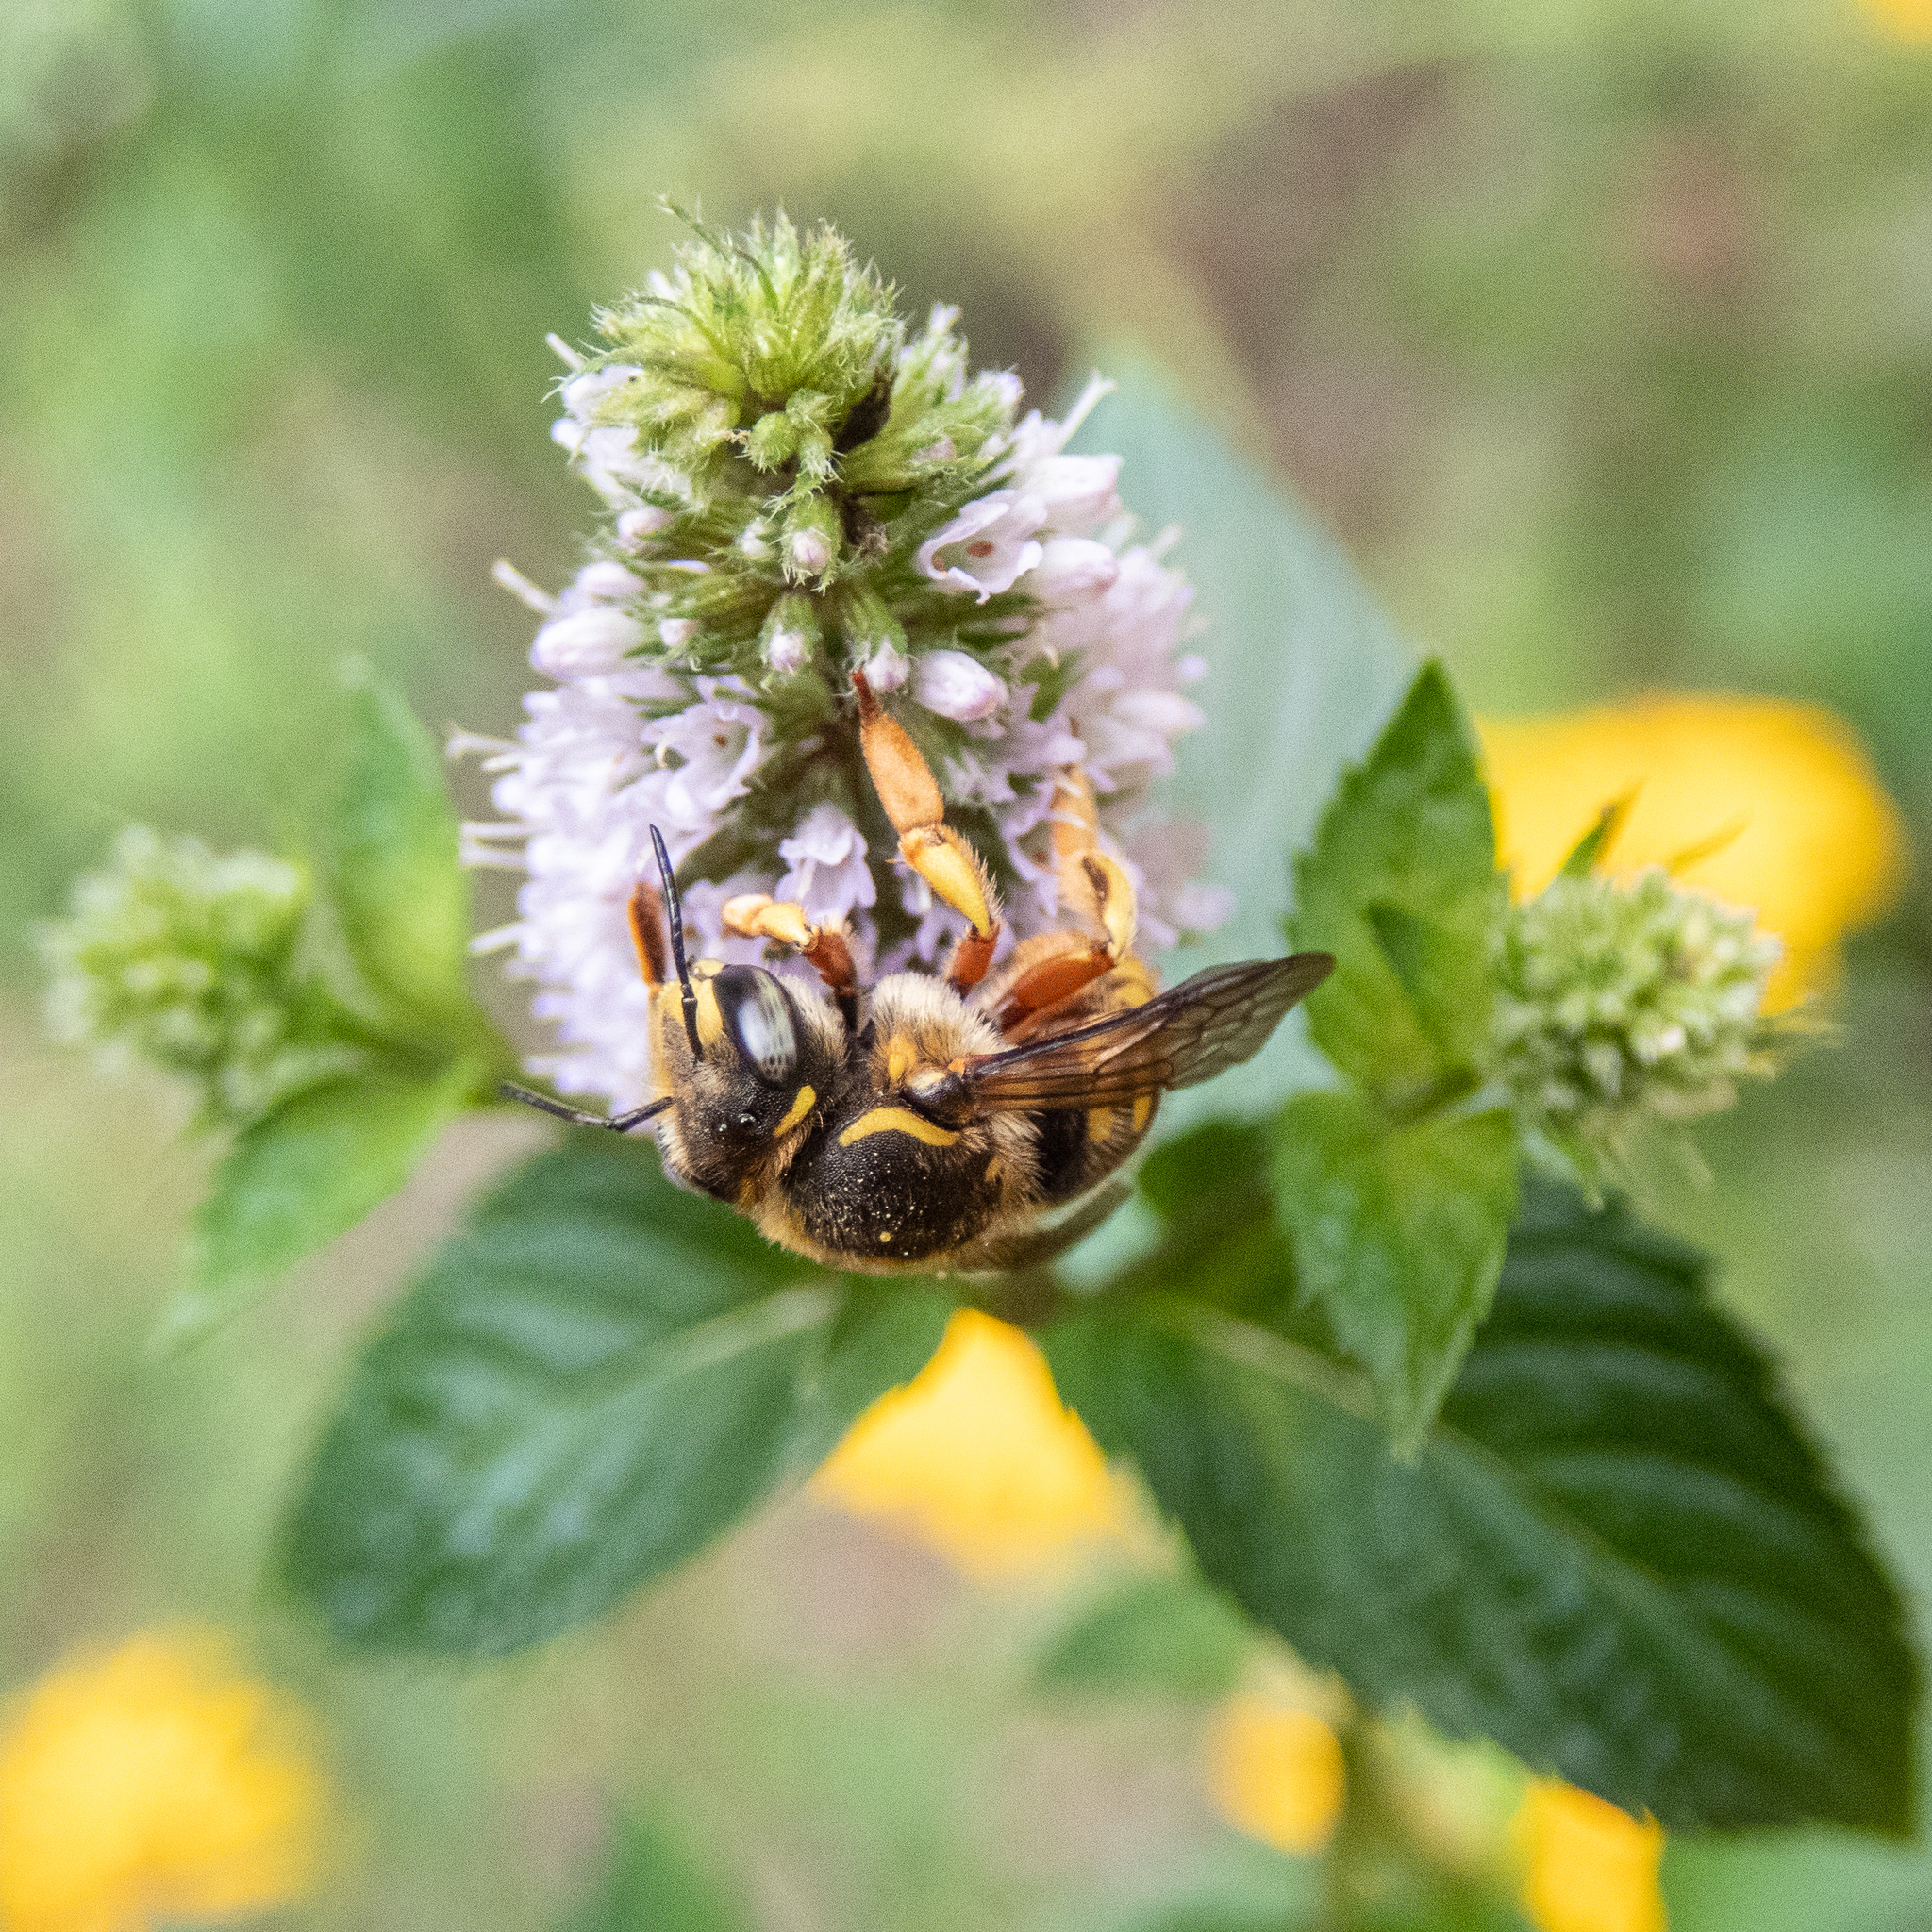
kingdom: Animalia
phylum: Arthropoda
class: Insecta
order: Hymenoptera
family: Megachilidae
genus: Anthidium
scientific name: Anthidium manicatum
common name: Wool carder bee
